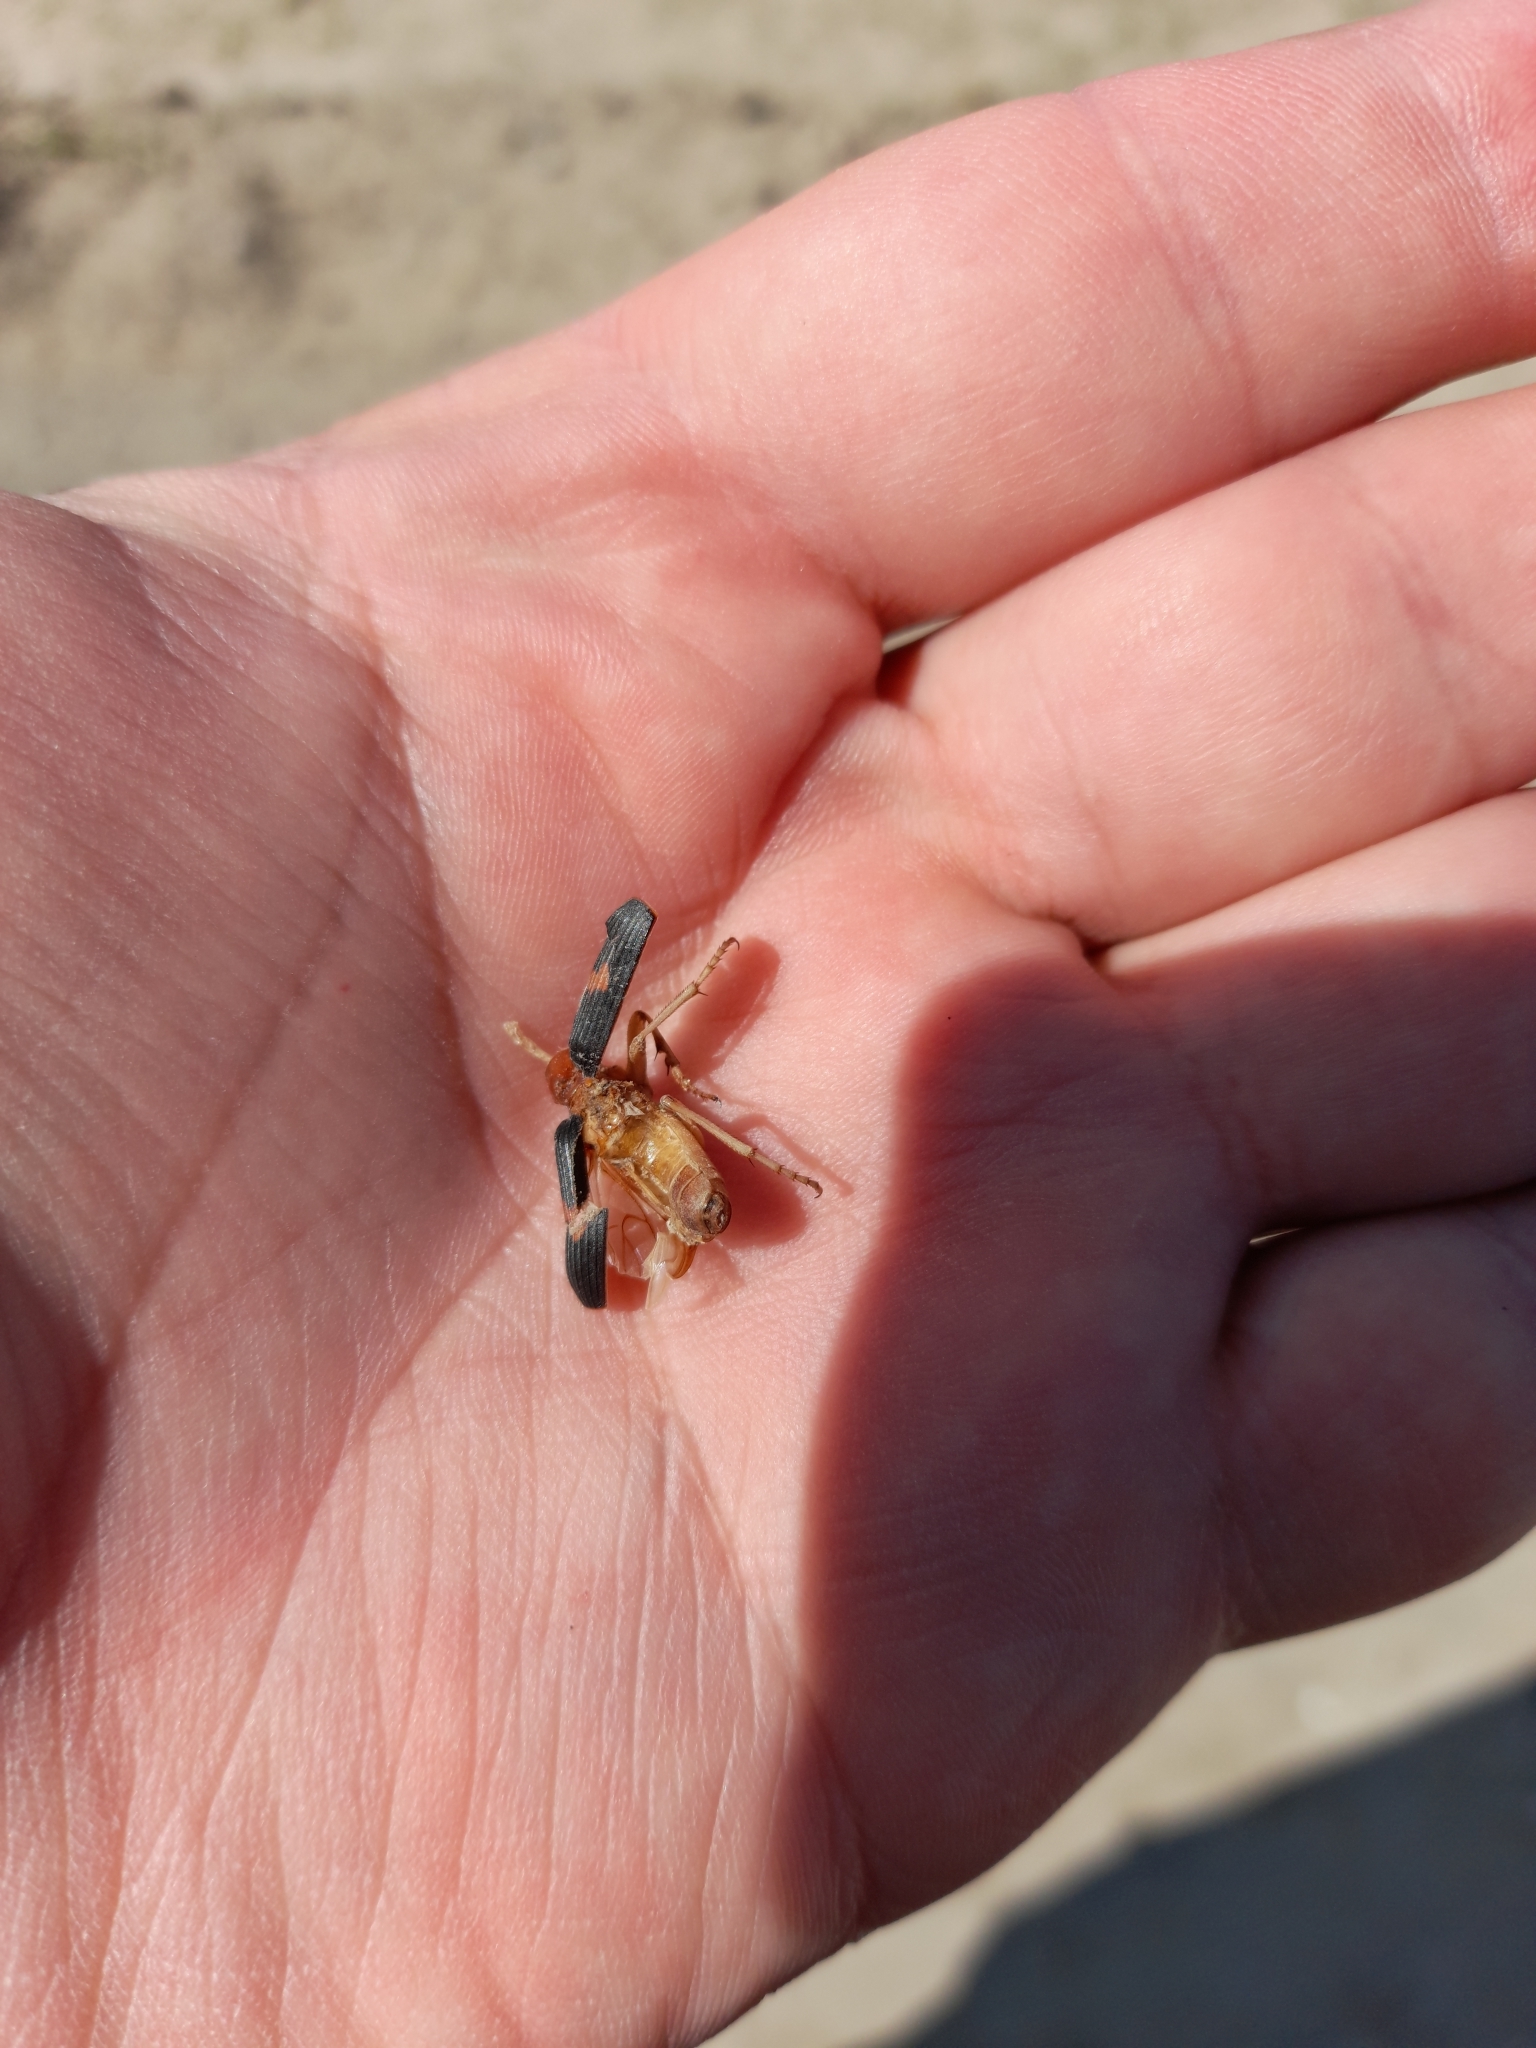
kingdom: Animalia
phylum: Arthropoda
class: Insecta
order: Coleoptera
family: Carabidae
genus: Pheropsophus
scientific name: Pheropsophus aequinoctialis
